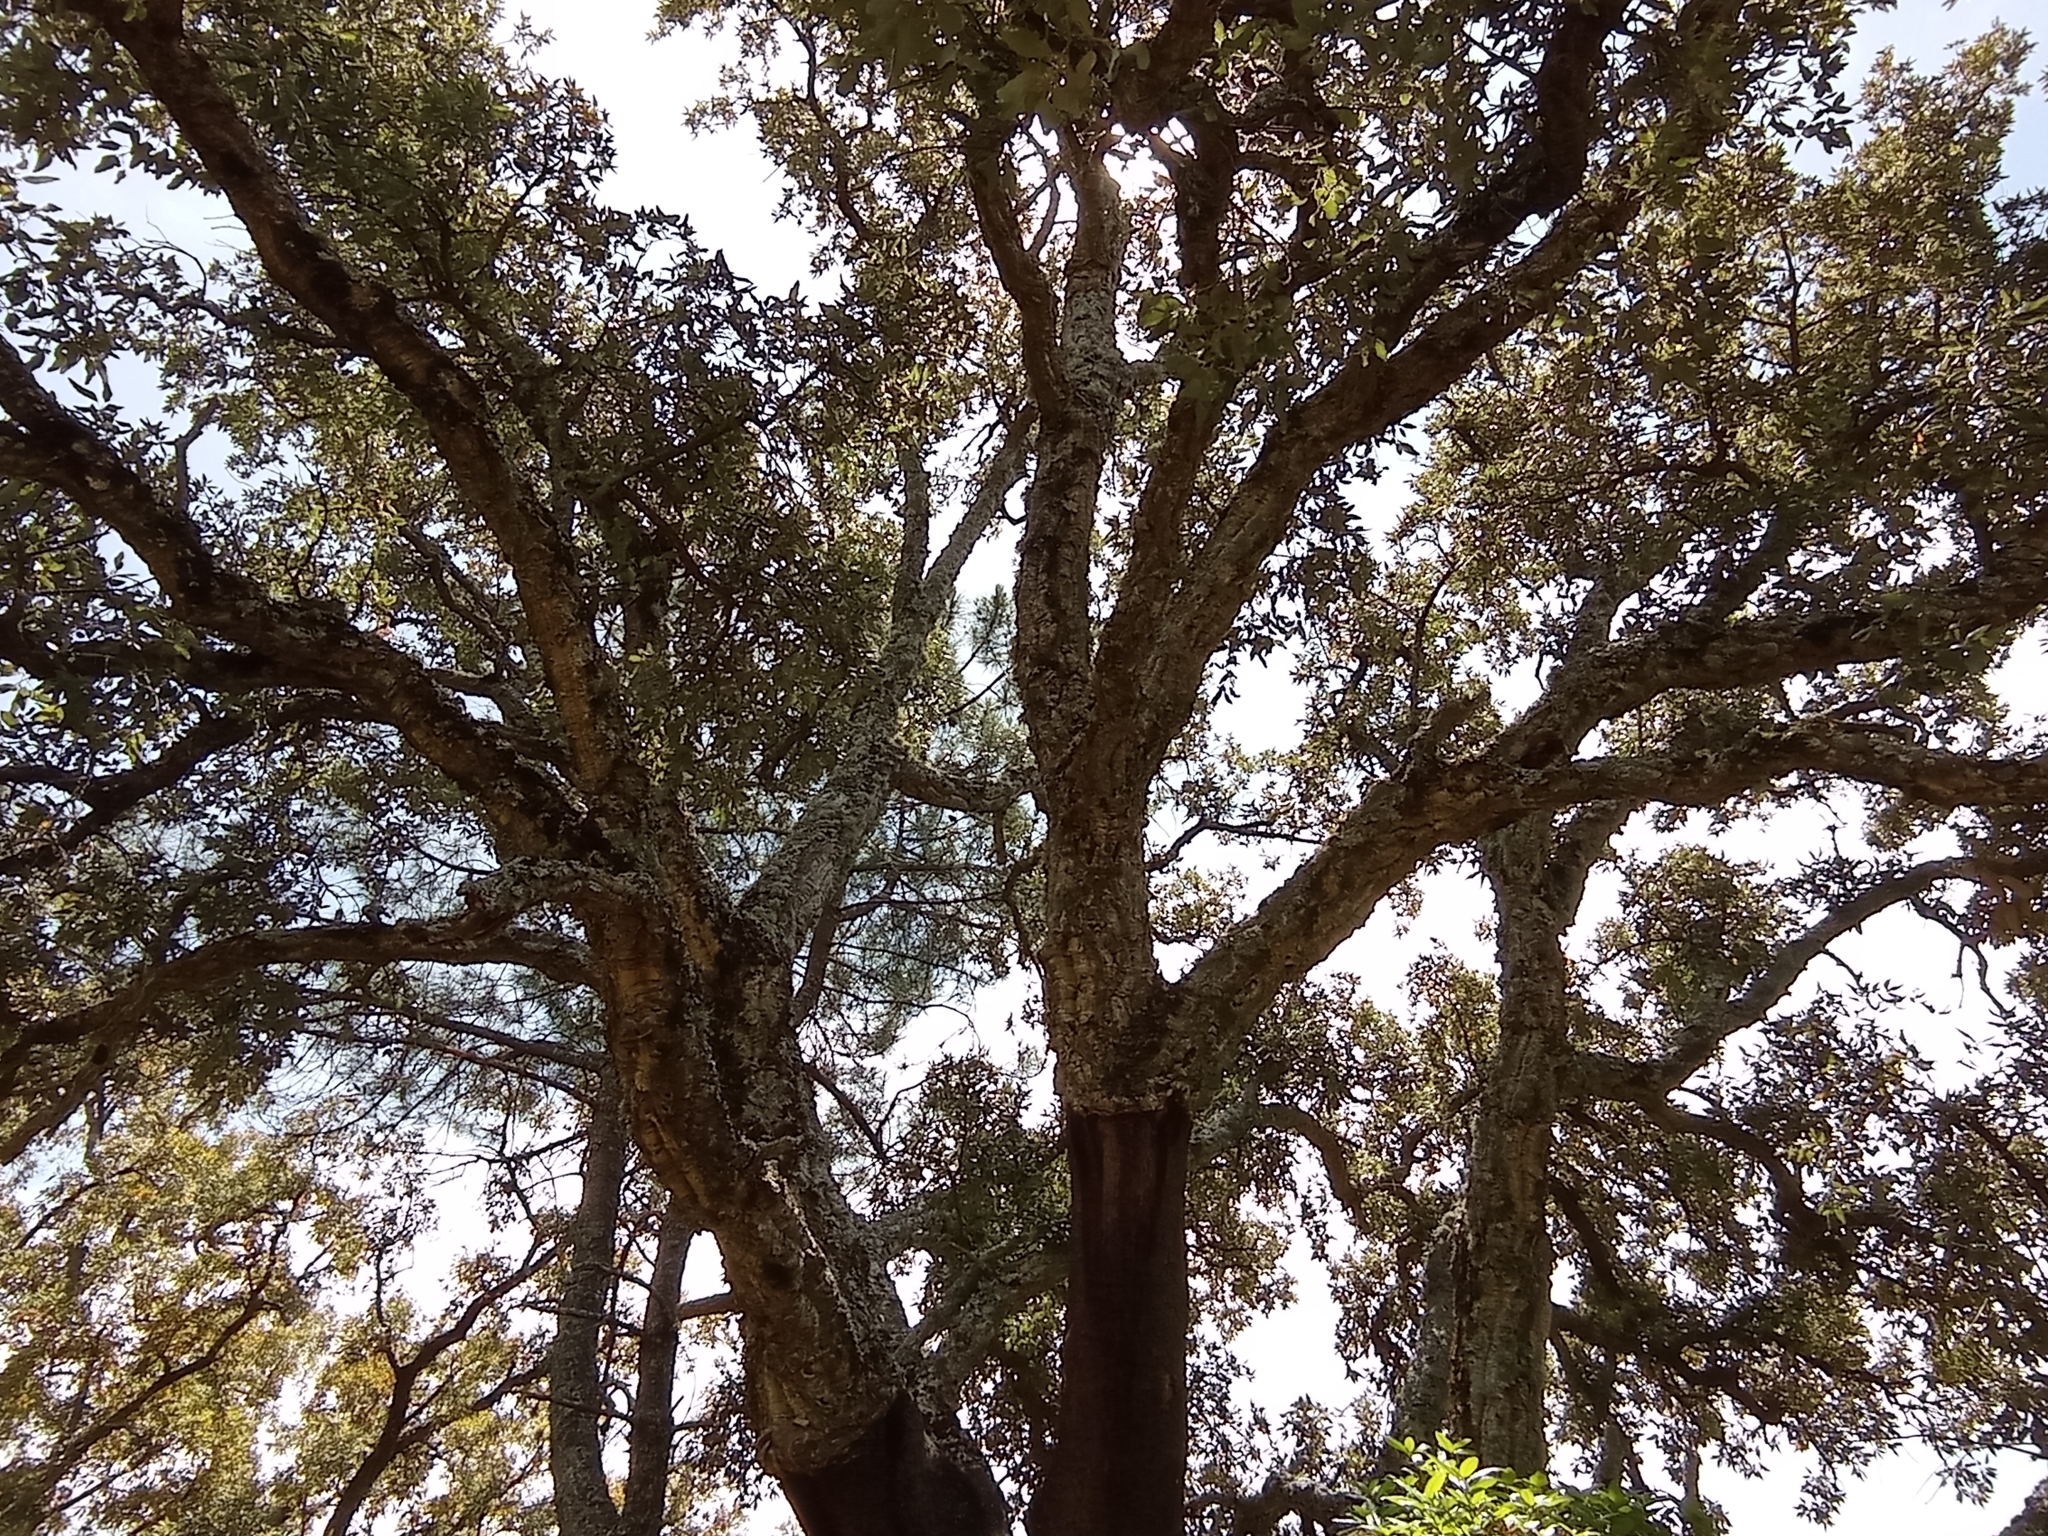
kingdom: Plantae
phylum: Tracheophyta
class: Magnoliopsida
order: Fagales
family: Fagaceae
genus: Quercus
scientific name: Quercus suber
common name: Cork oak
